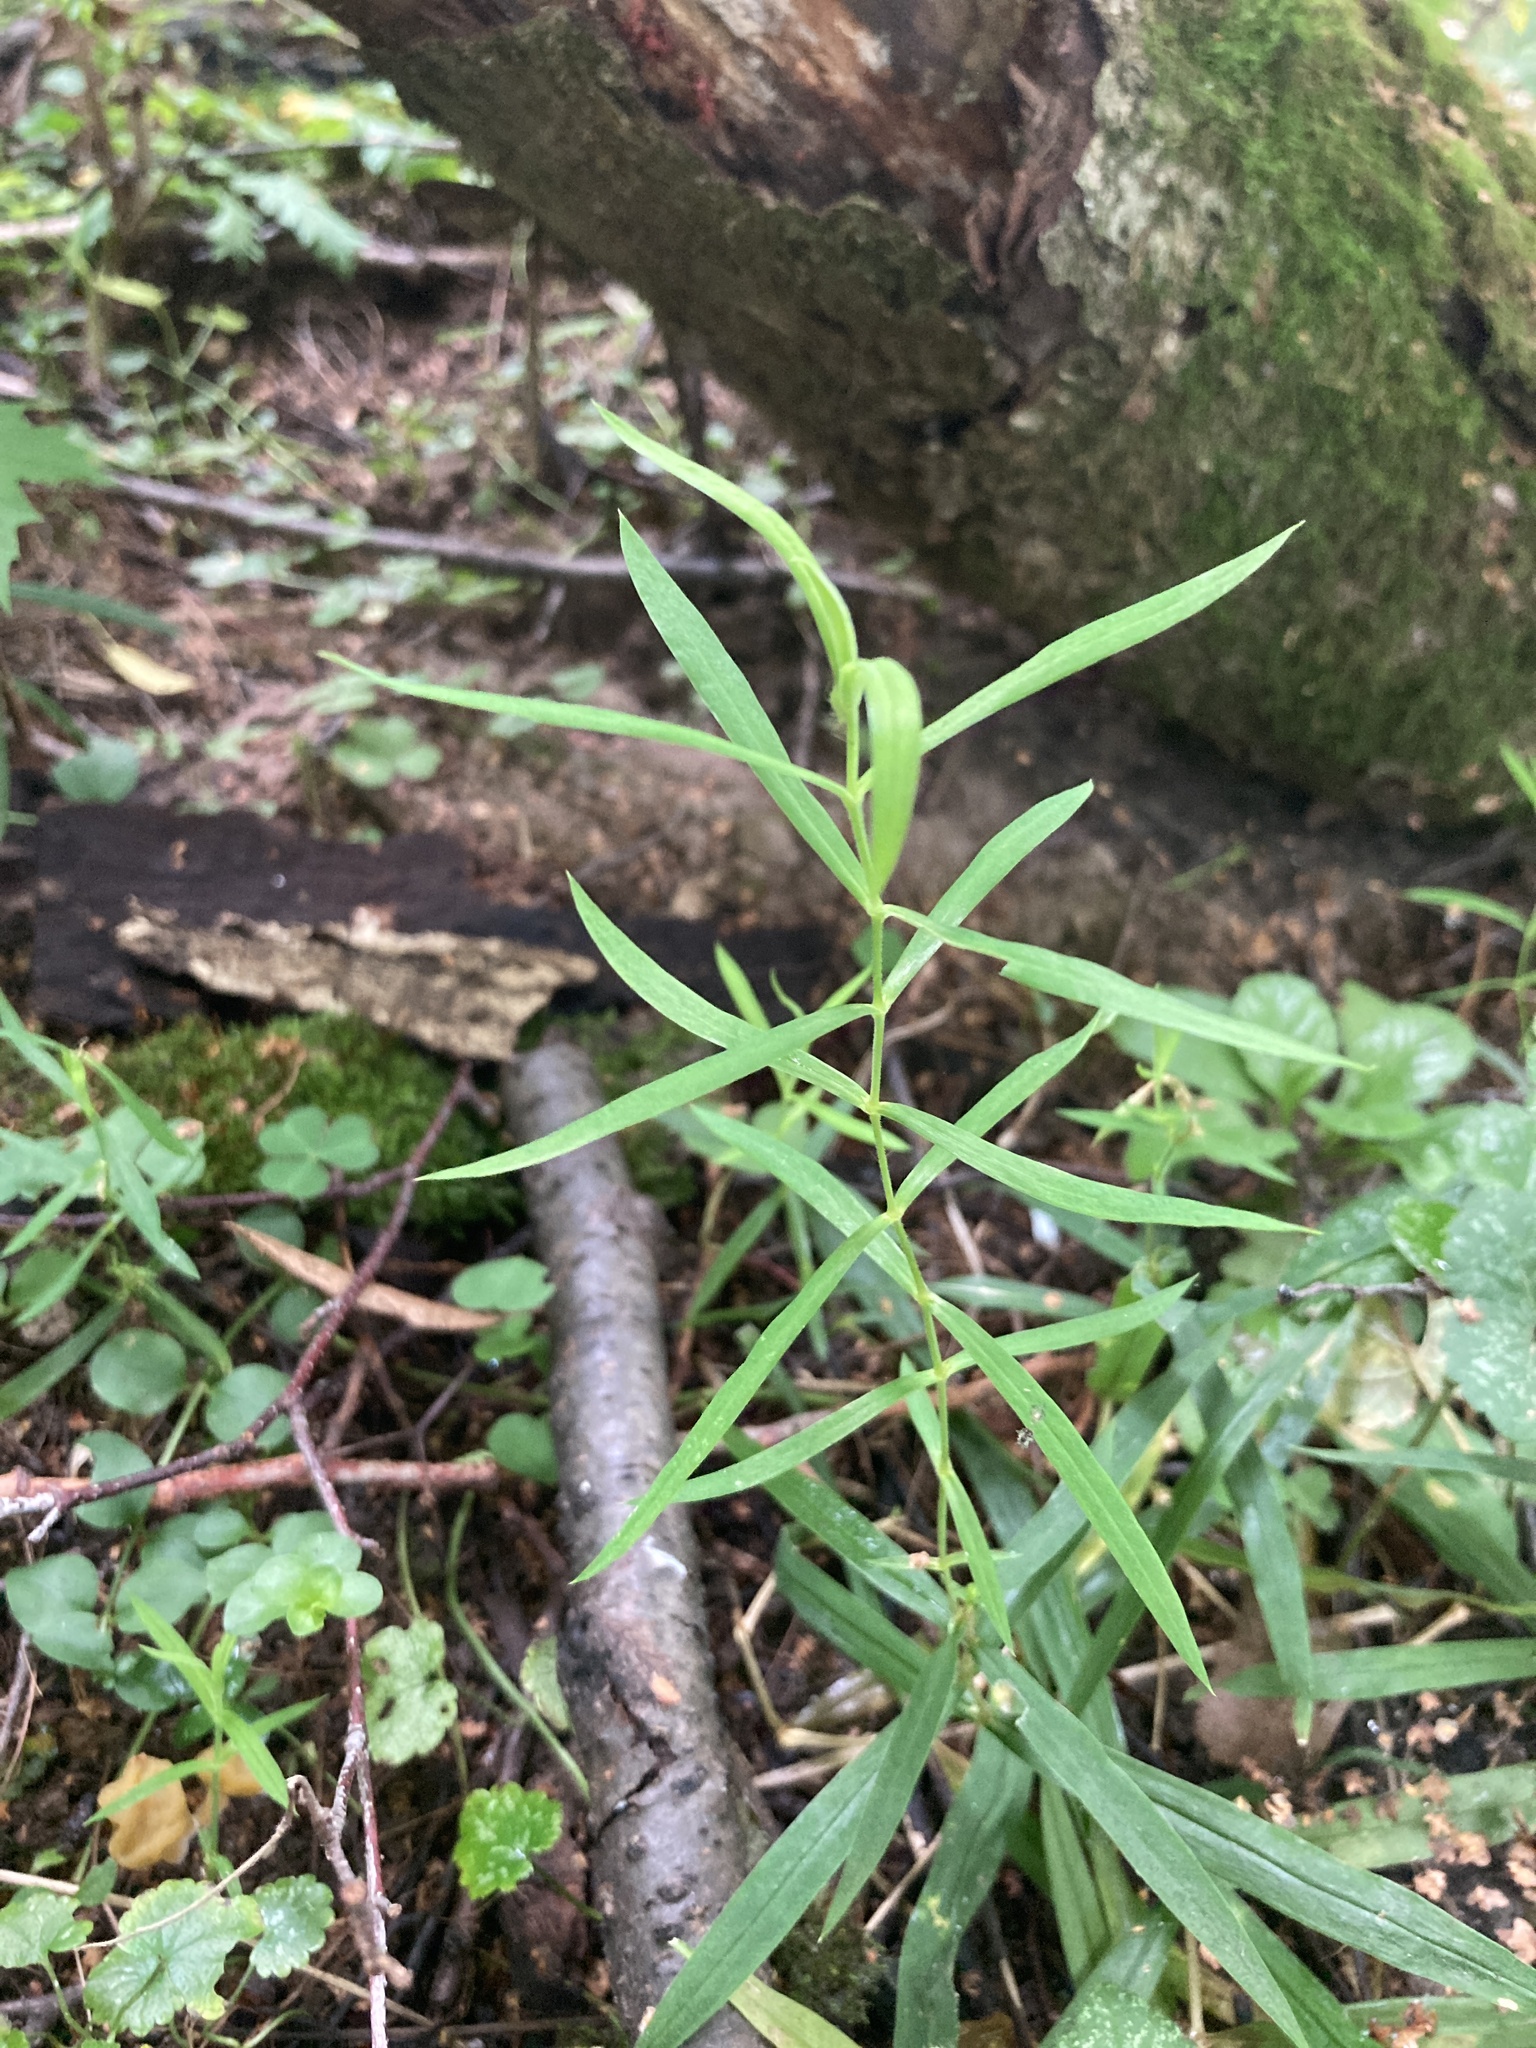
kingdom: Plantae
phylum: Tracheophyta
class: Magnoliopsida
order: Caryophyllales
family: Caryophyllaceae
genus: Rabelera
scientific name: Rabelera holostea
